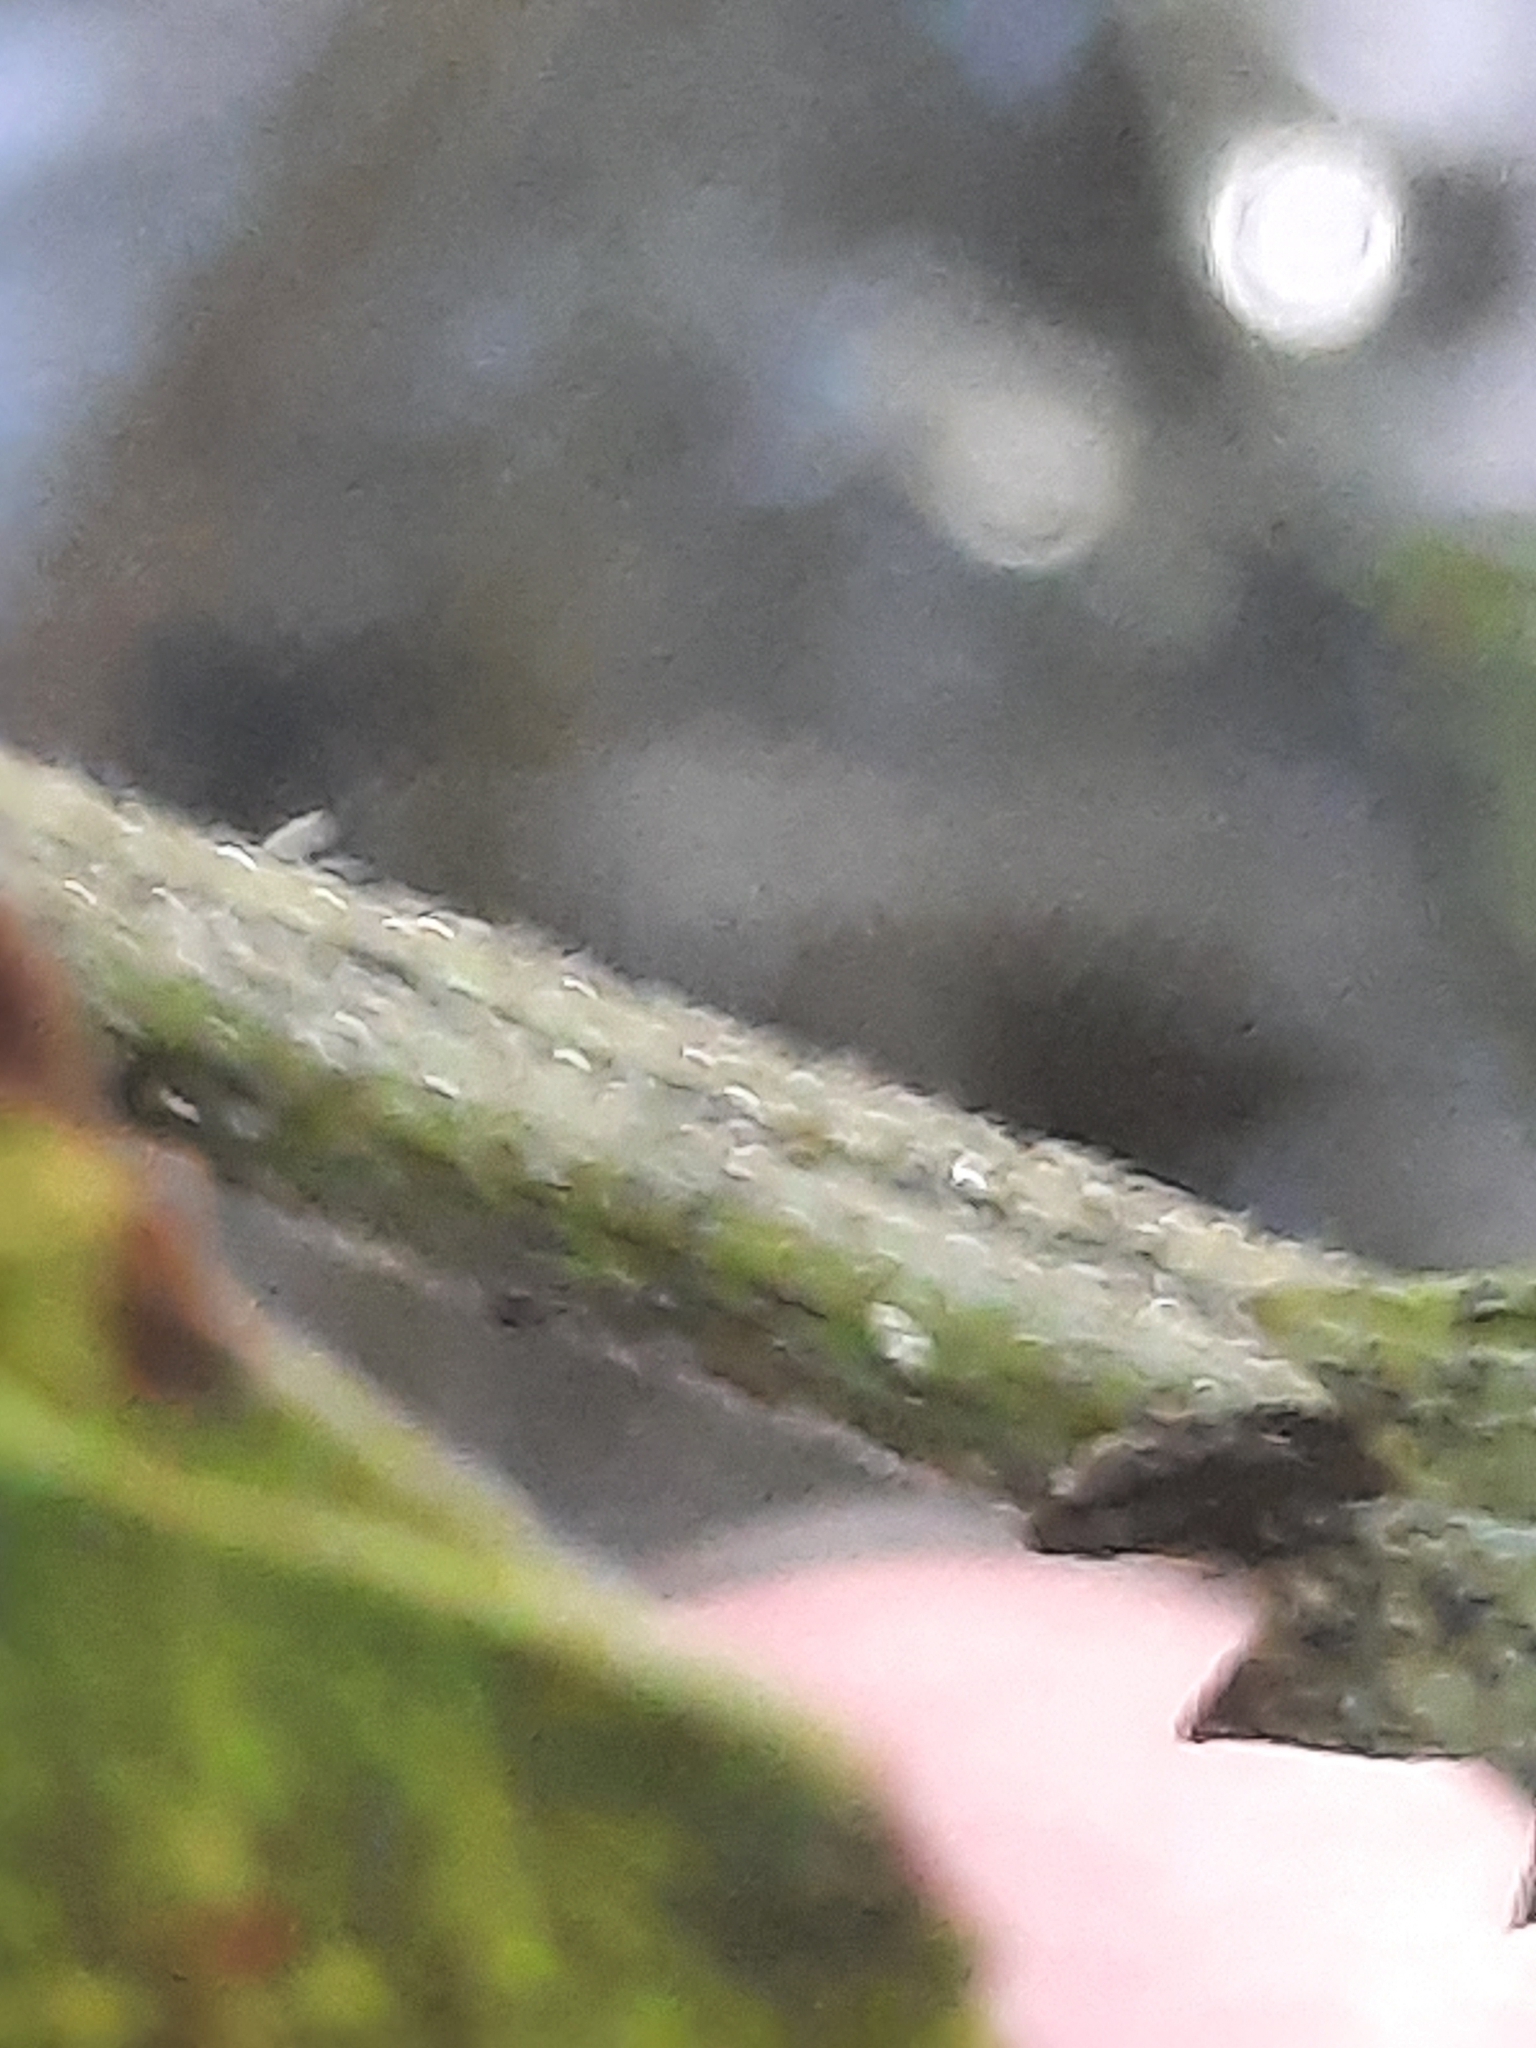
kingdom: Plantae
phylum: Tracheophyta
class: Magnoliopsida
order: Rosales
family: Urticaceae
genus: Urtica
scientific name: Urtica dioica
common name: Common nettle
